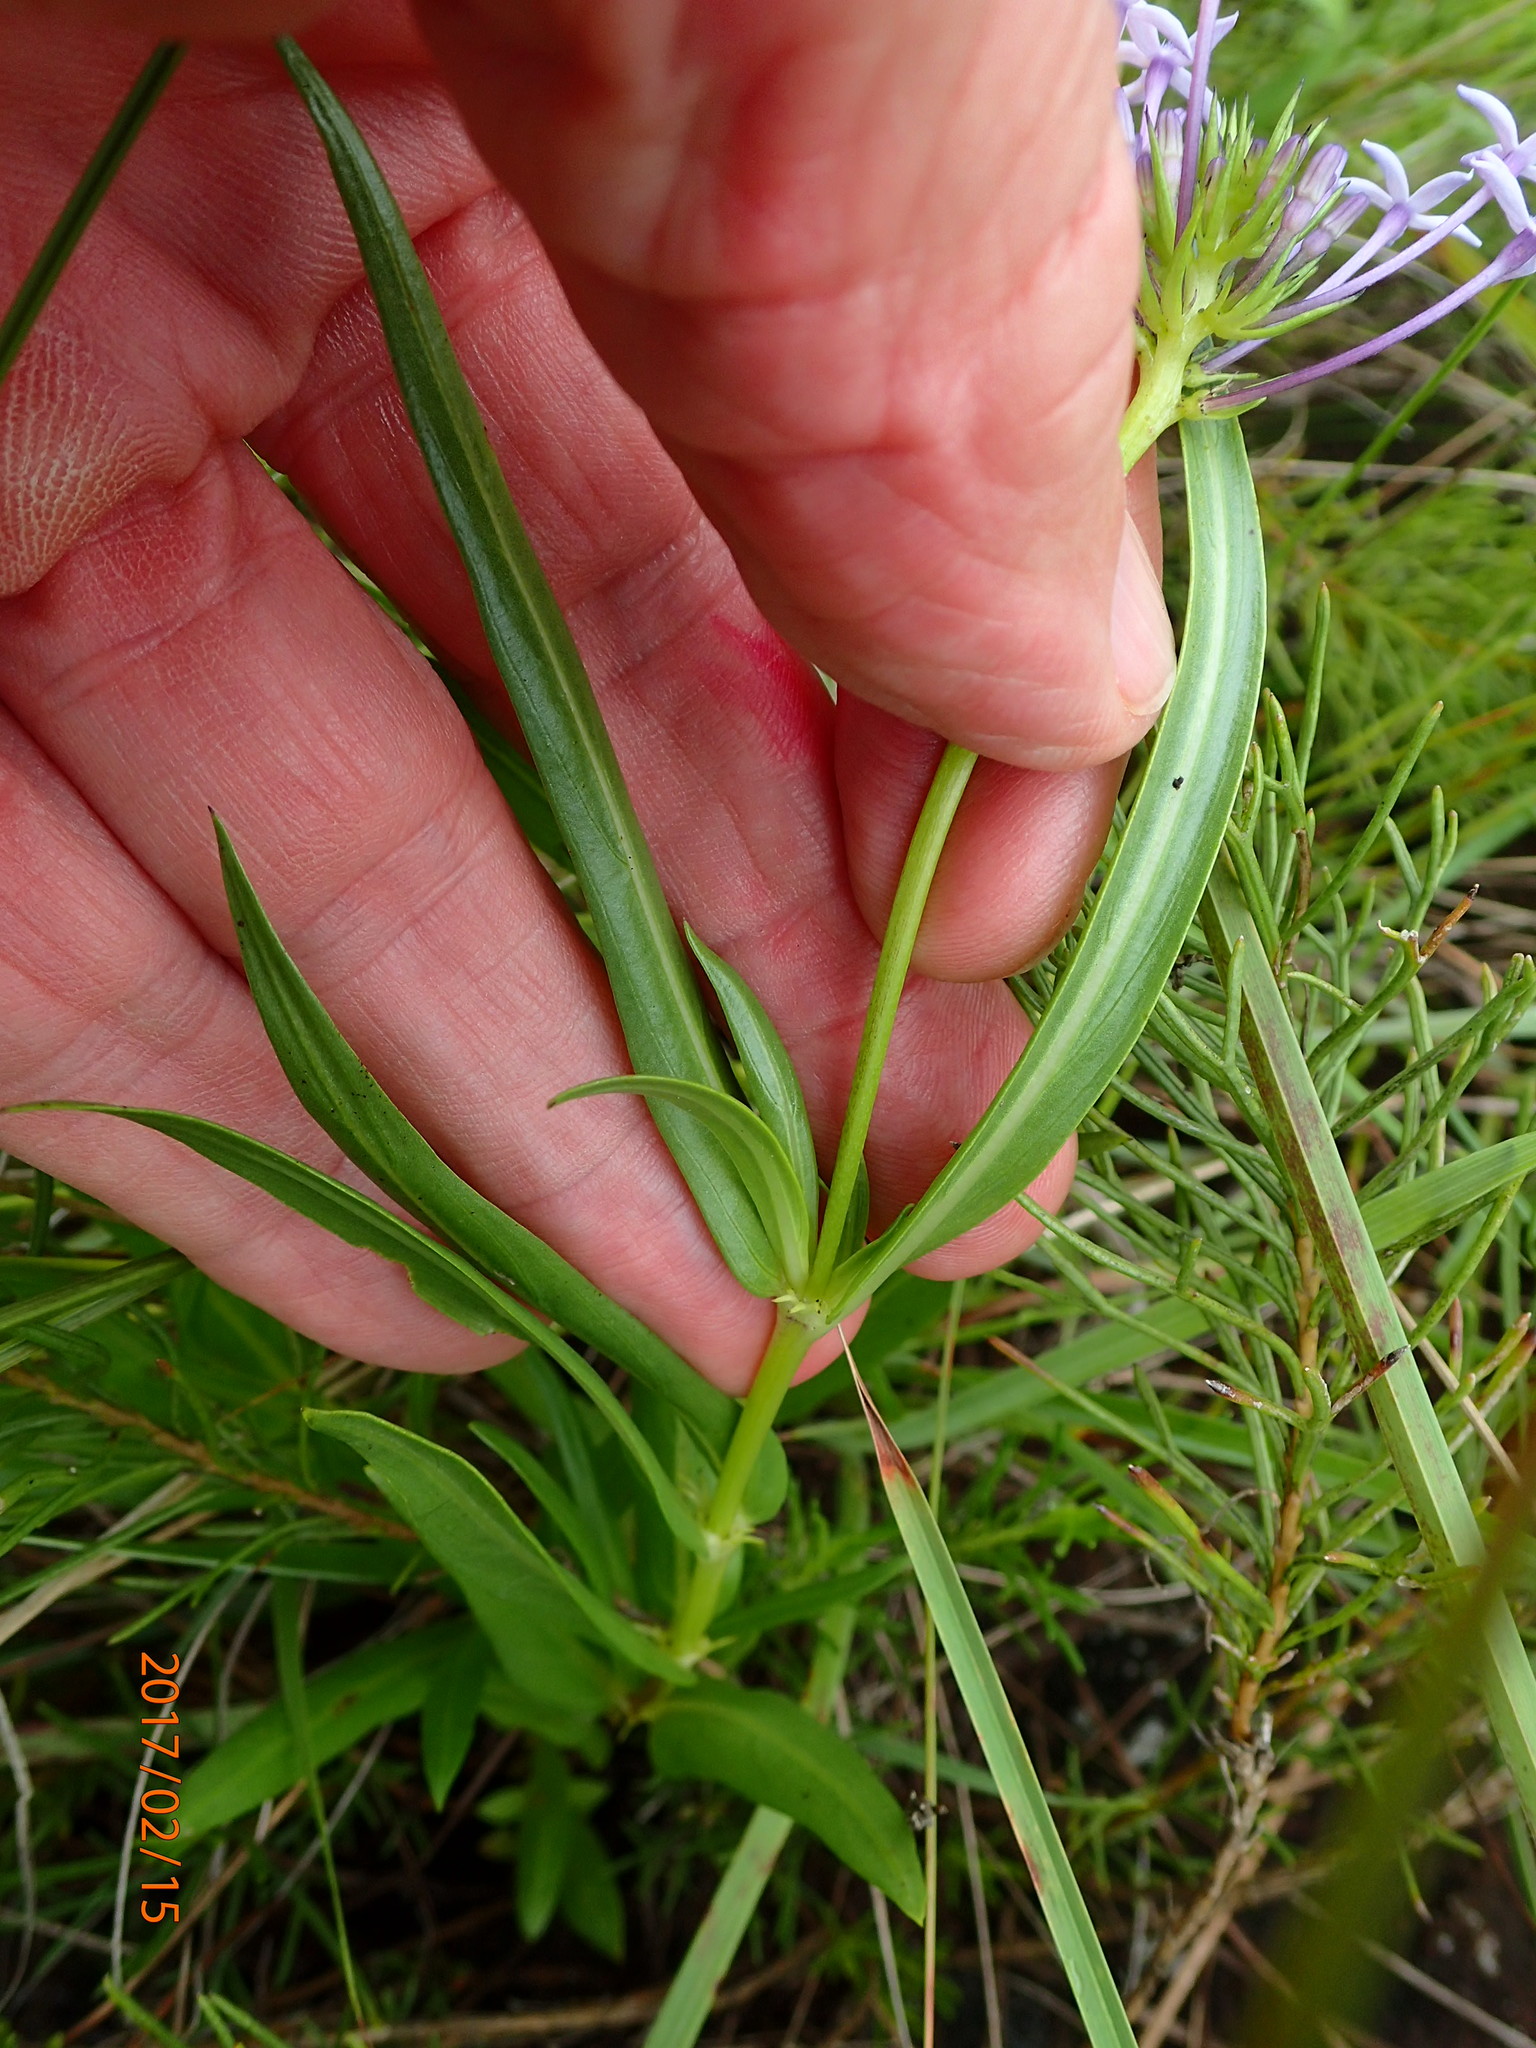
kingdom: Plantae
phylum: Tracheophyta
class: Magnoliopsida
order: Gentianales
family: Rubiaceae
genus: Pentanisia
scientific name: Pentanisia angustifolia
